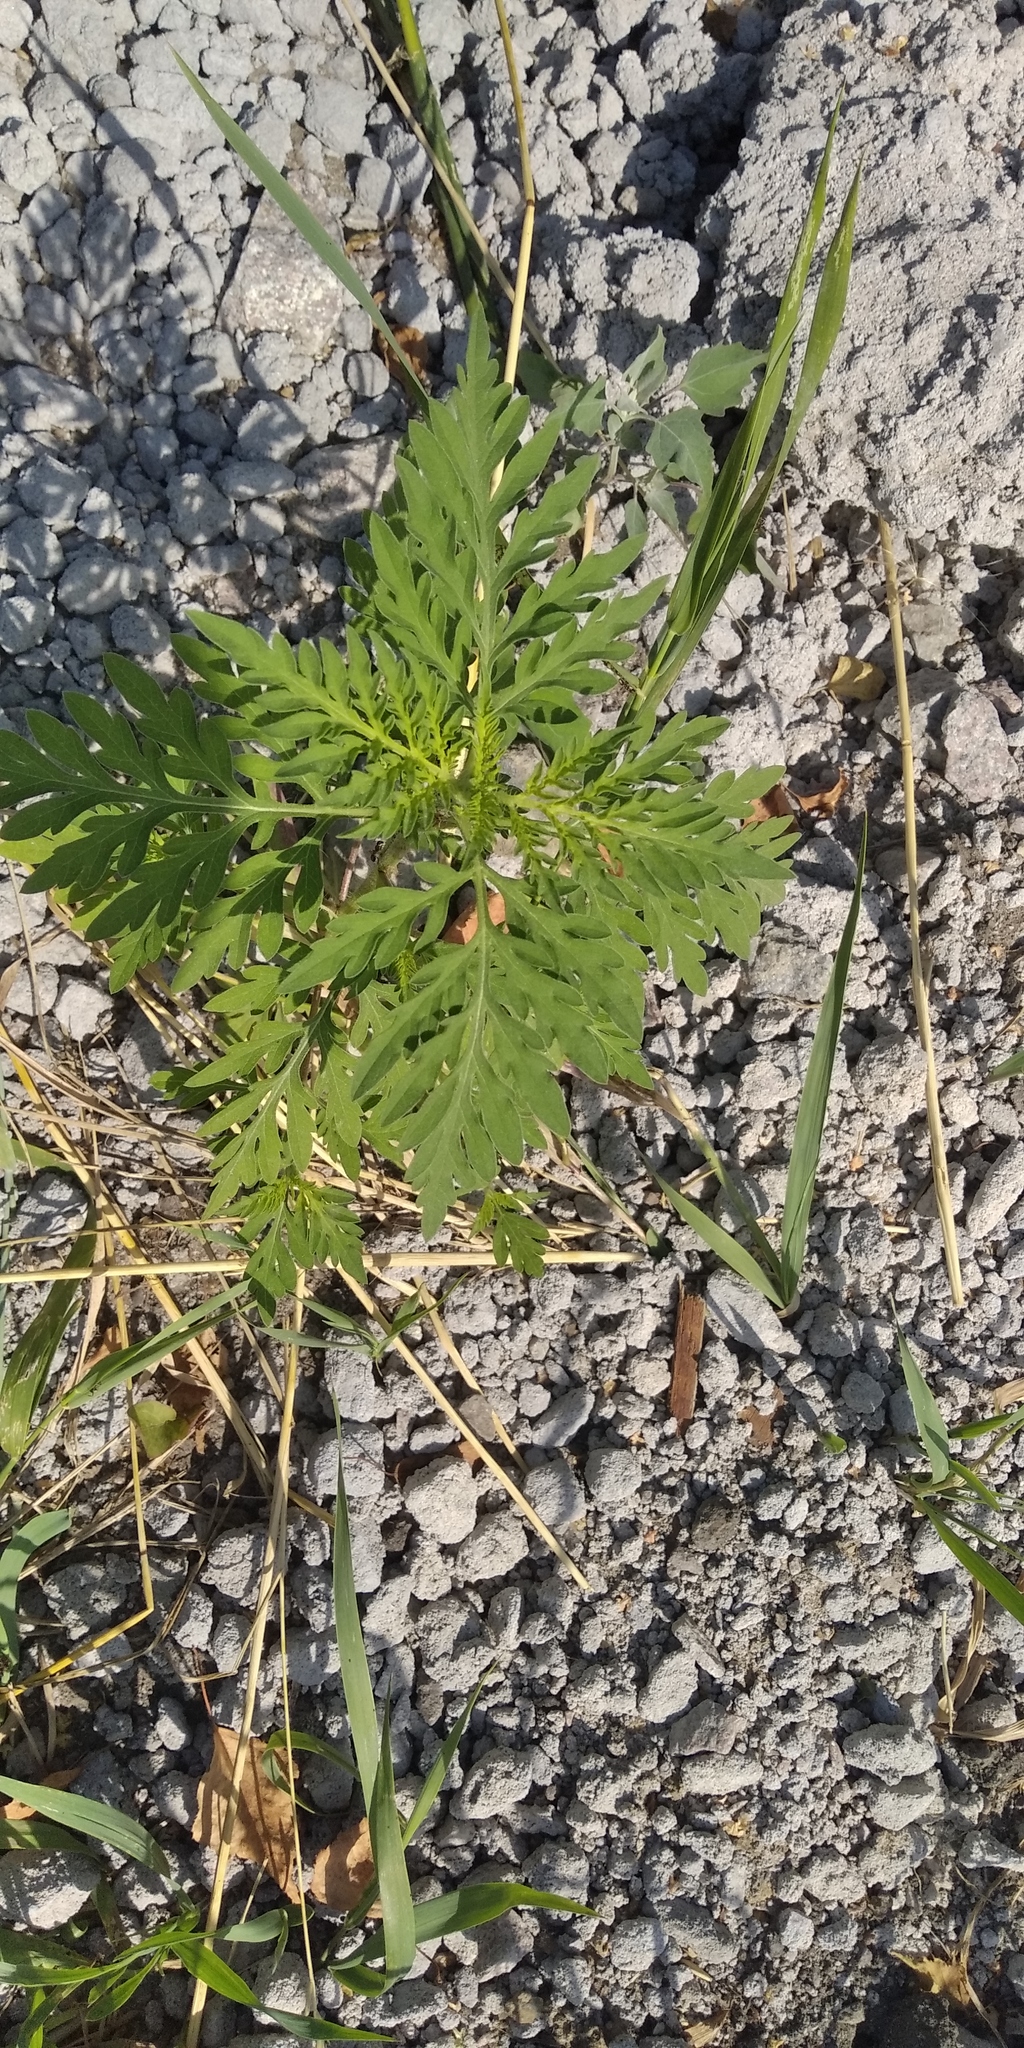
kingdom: Plantae
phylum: Tracheophyta
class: Magnoliopsida
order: Asterales
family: Asteraceae
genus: Ambrosia
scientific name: Ambrosia artemisiifolia
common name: Annual ragweed
